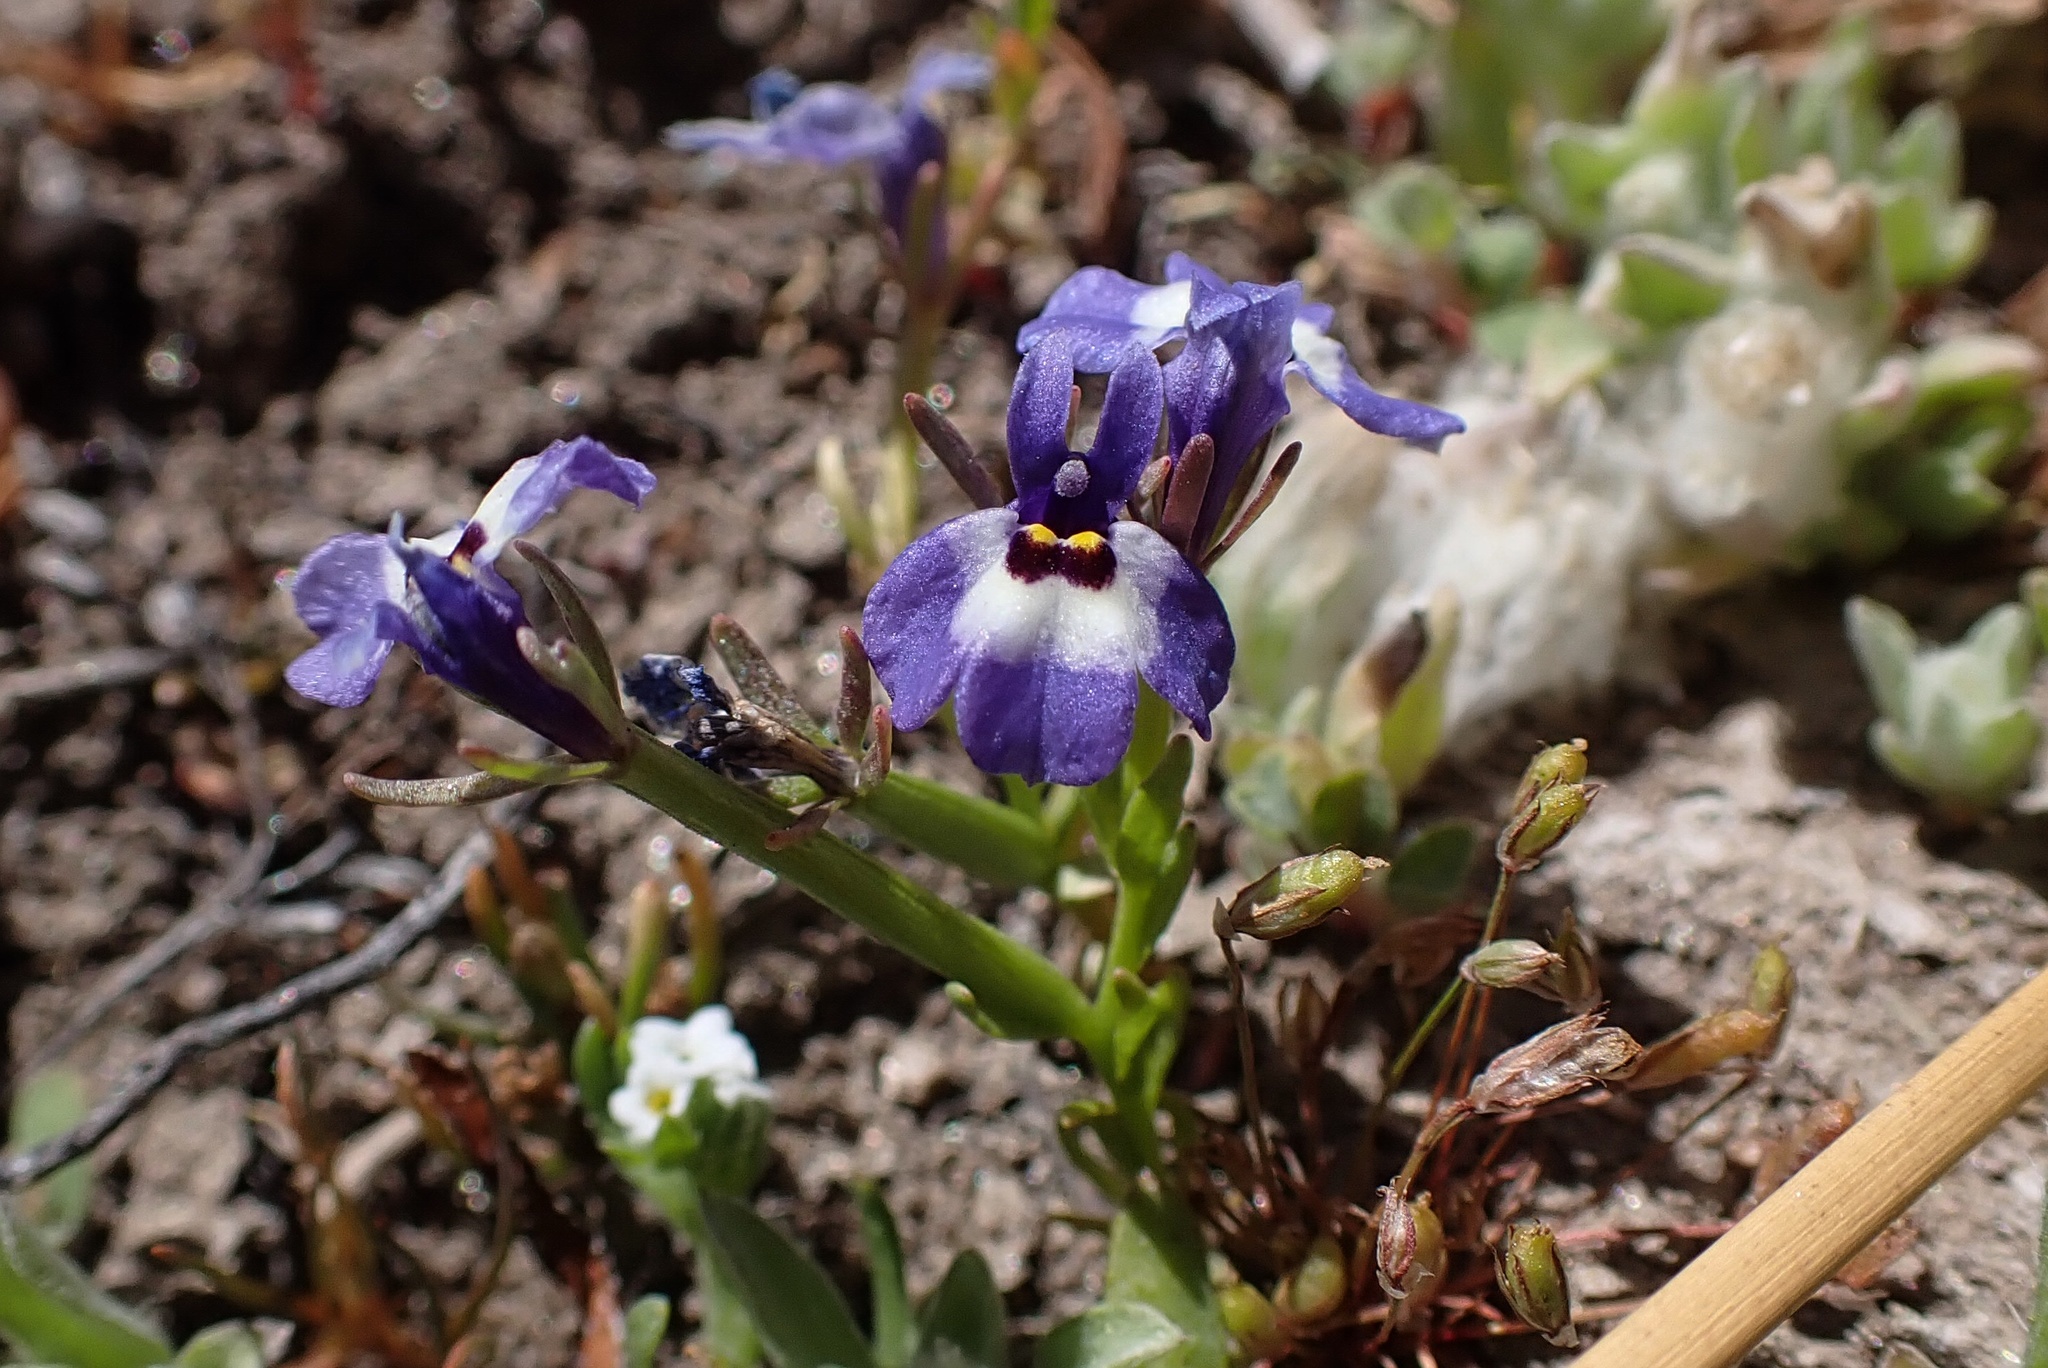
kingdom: Plantae
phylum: Tracheophyta
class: Magnoliopsida
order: Asterales
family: Campanulaceae
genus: Downingia
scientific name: Downingia concolor
